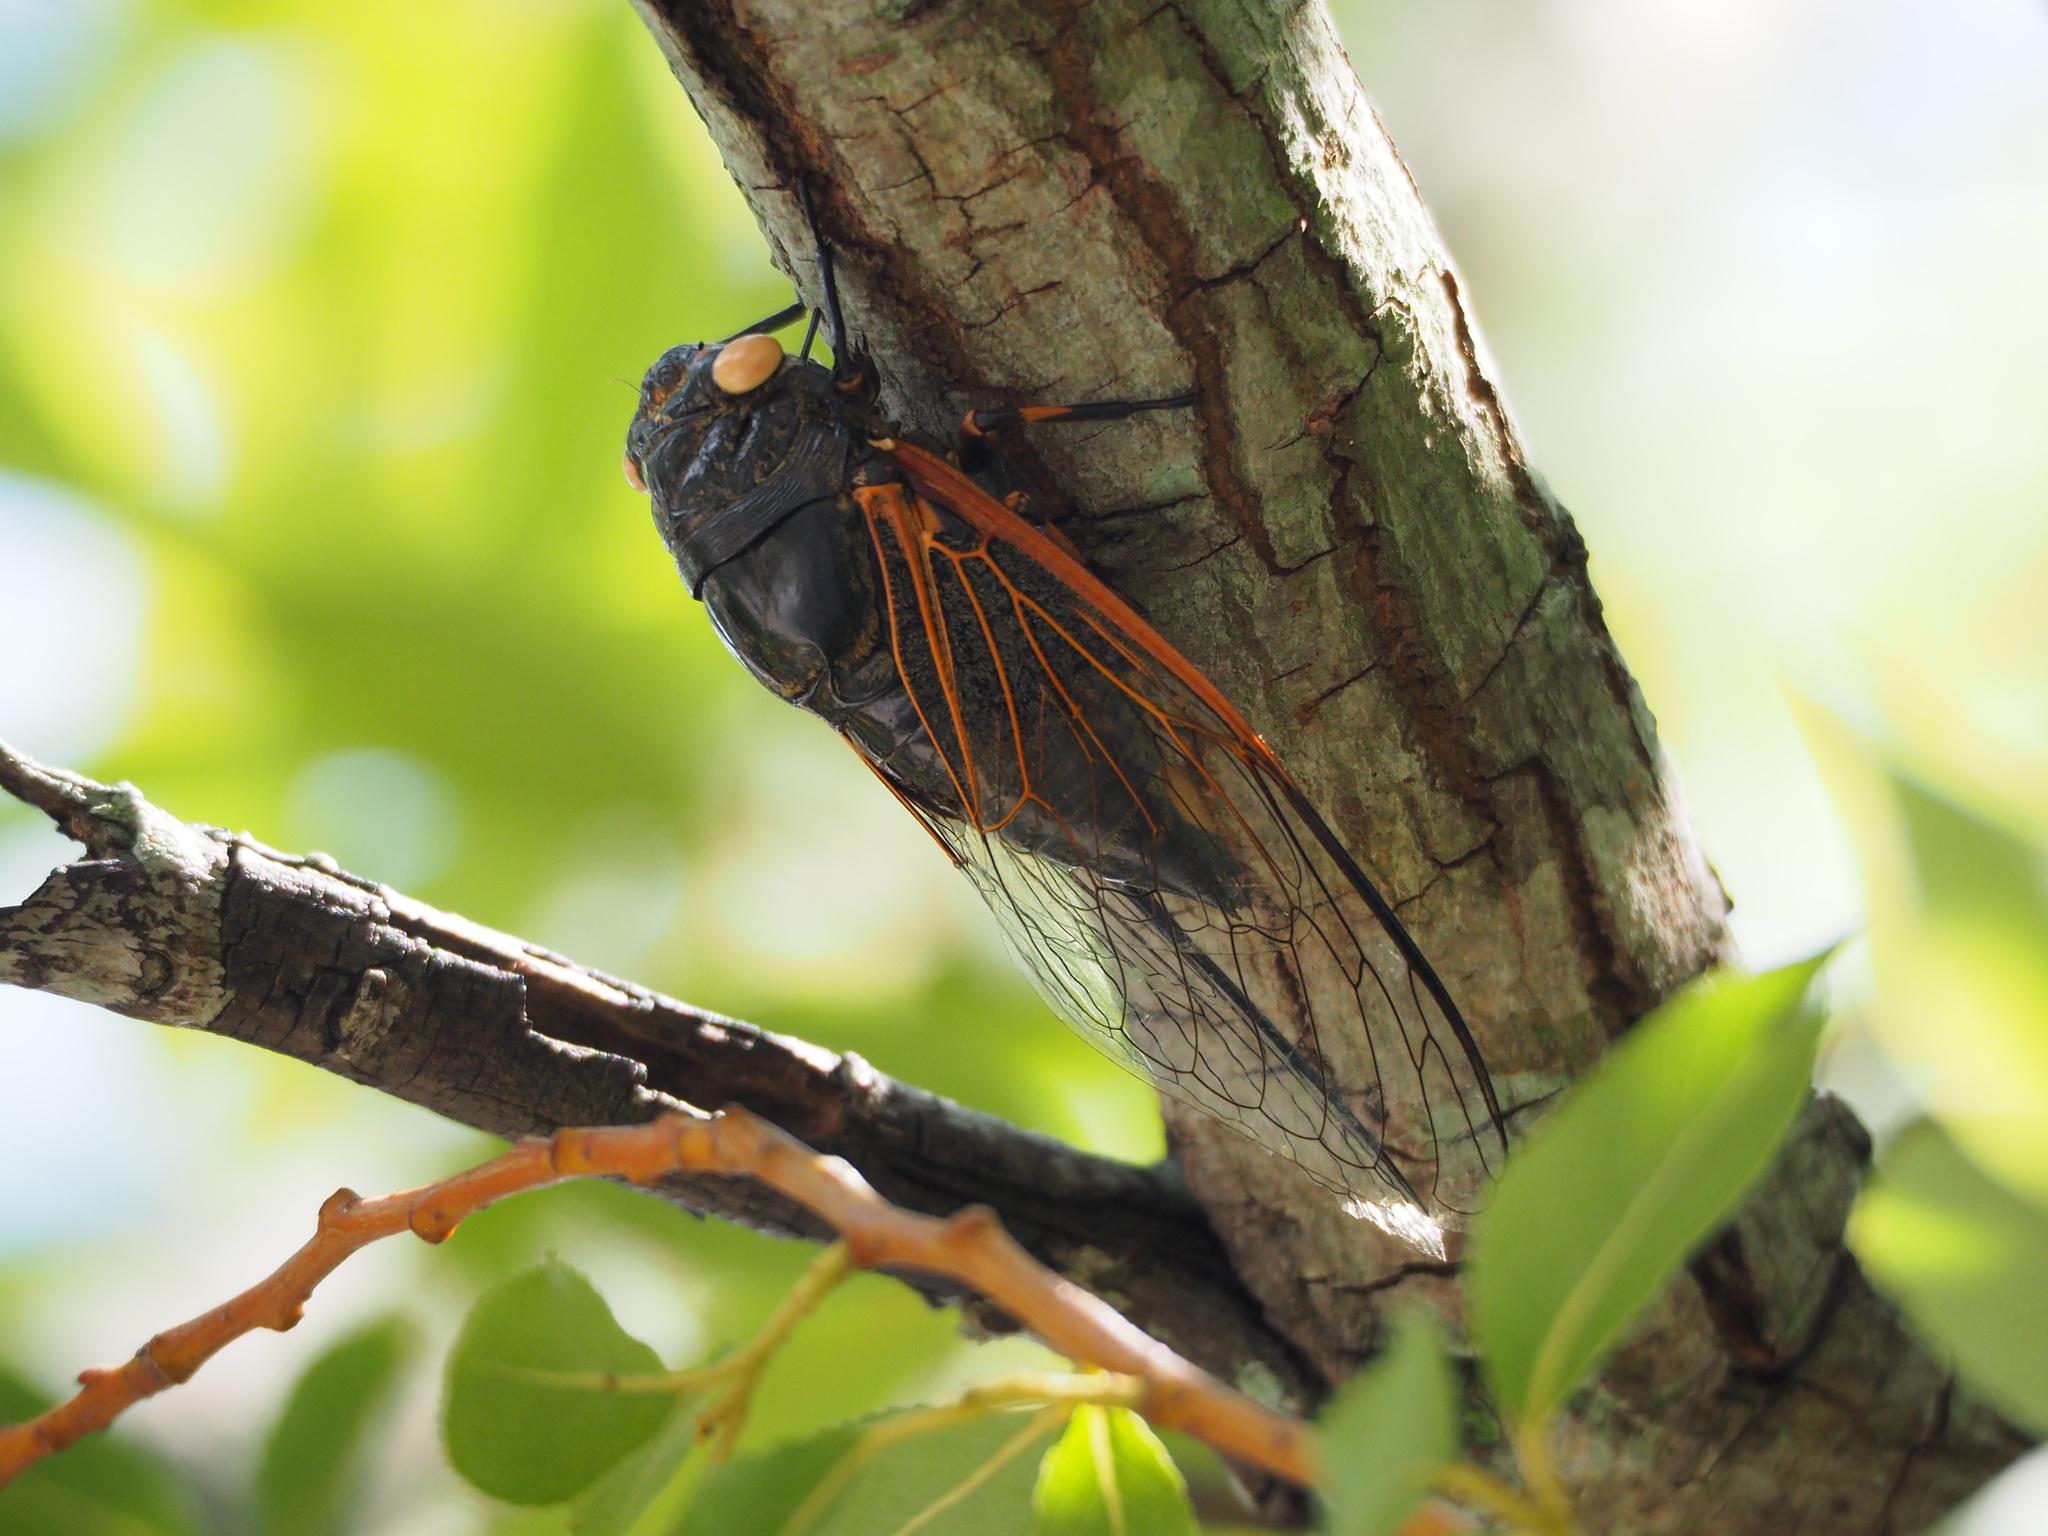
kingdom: Animalia
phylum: Arthropoda
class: Insecta
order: Hemiptera
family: Cicadidae
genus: Cryptotympana
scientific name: Cryptotympana atrata
